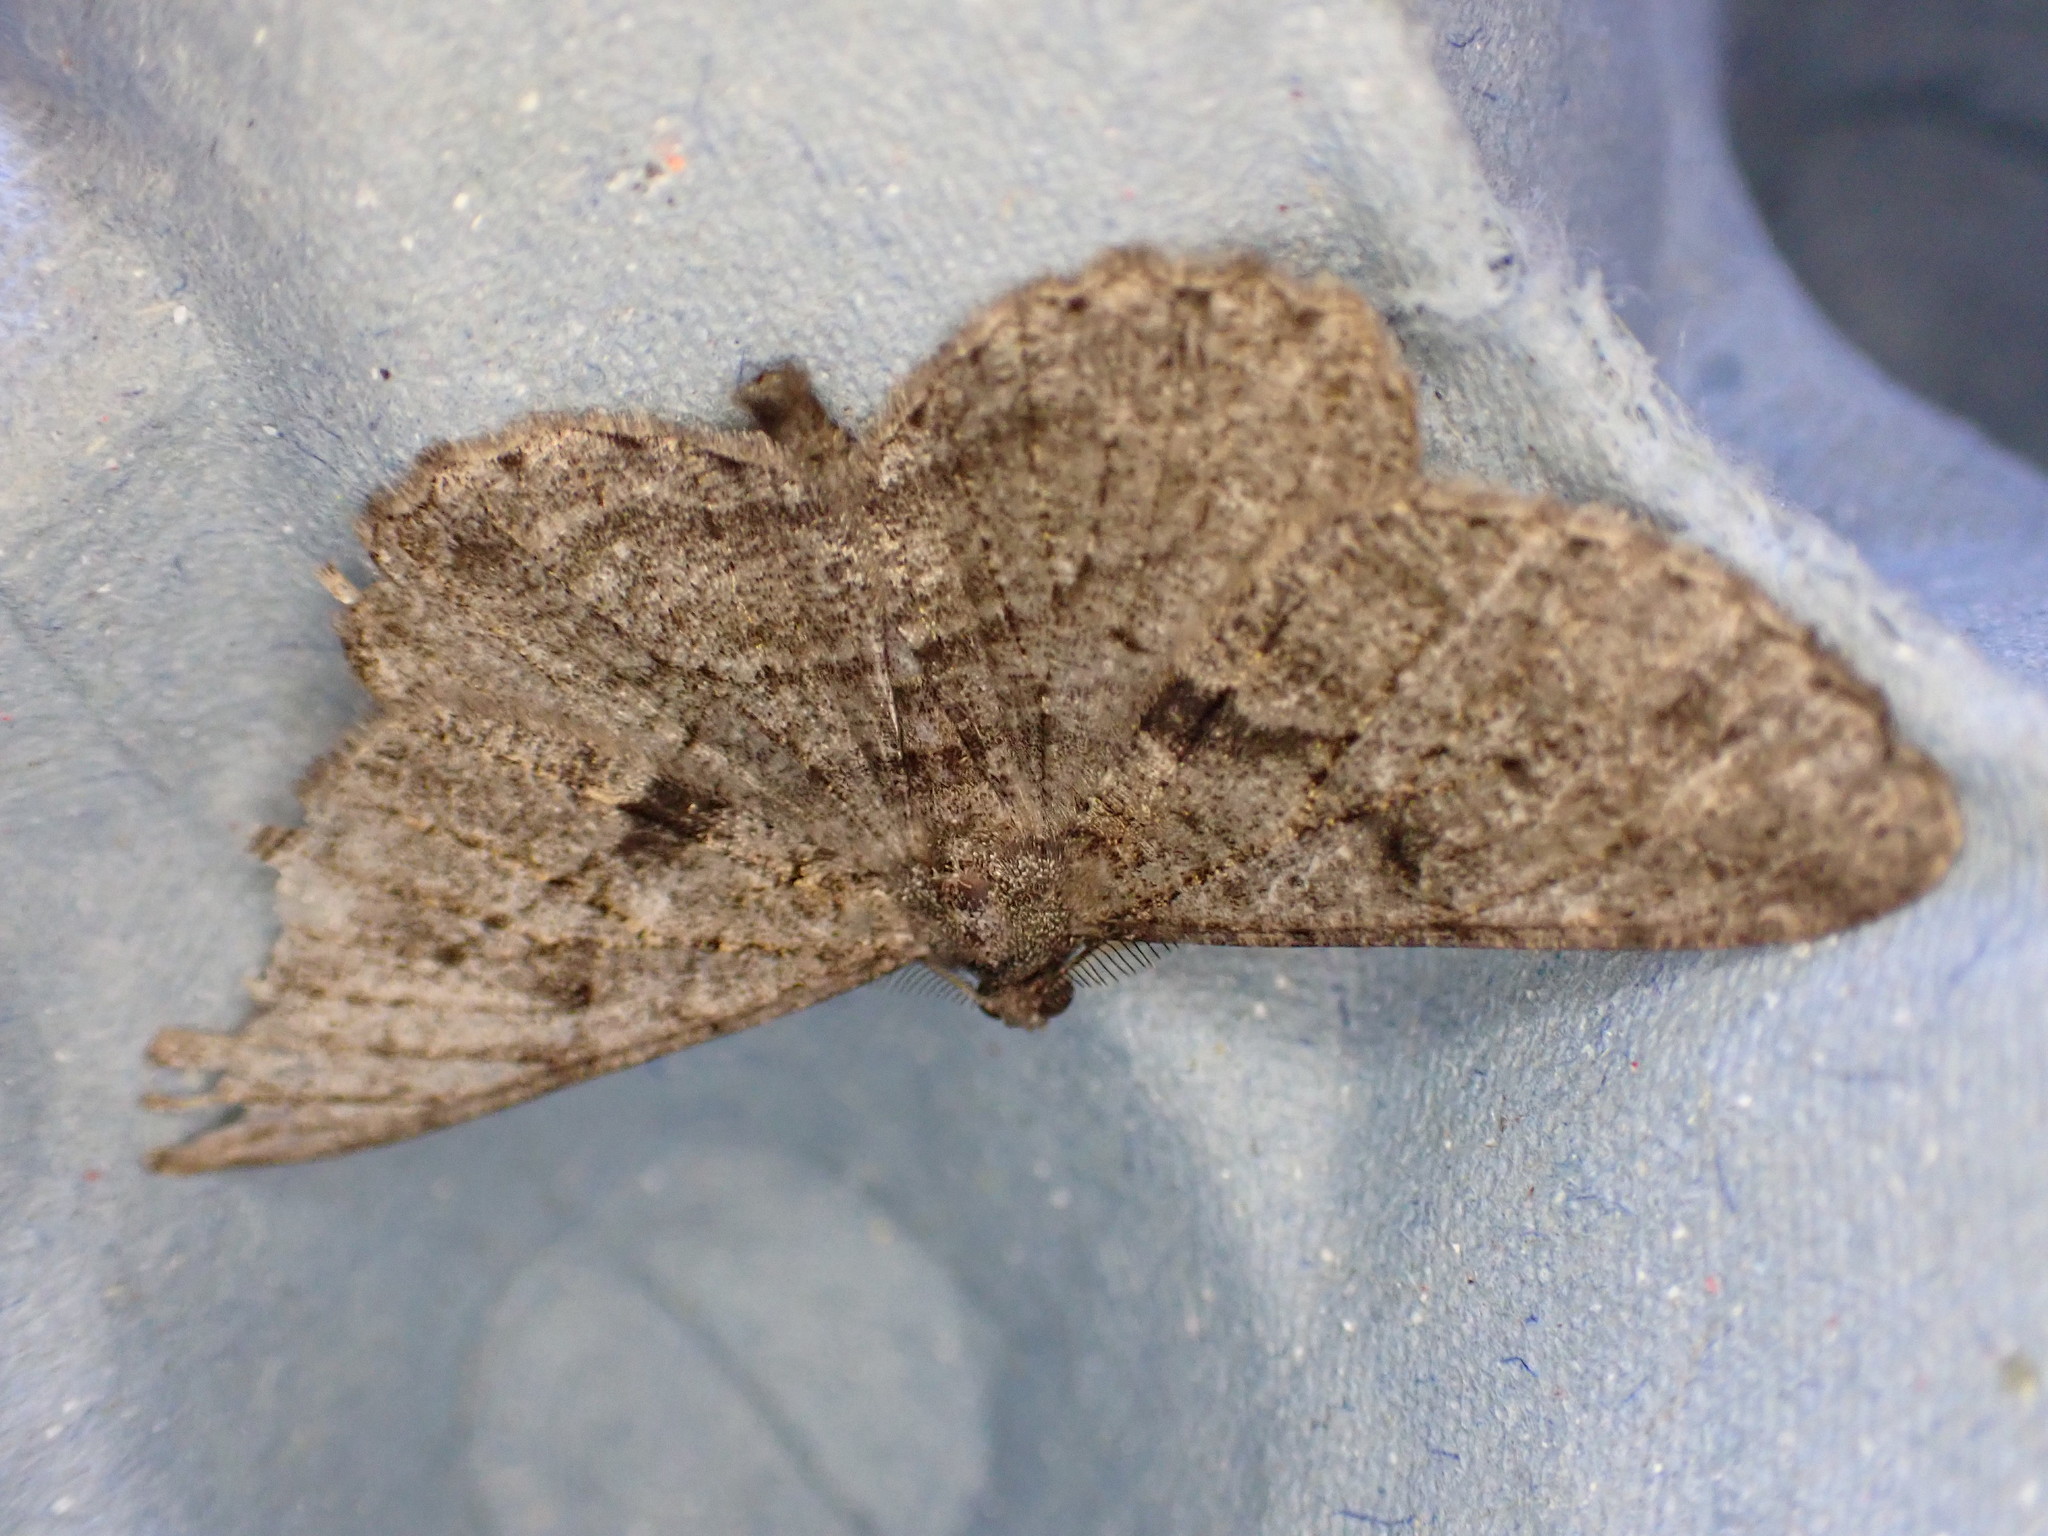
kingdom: Animalia
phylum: Arthropoda
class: Insecta
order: Lepidoptera
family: Geometridae
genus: Peribatodes
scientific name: Peribatodes rhomboidaria
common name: Willow beauty
